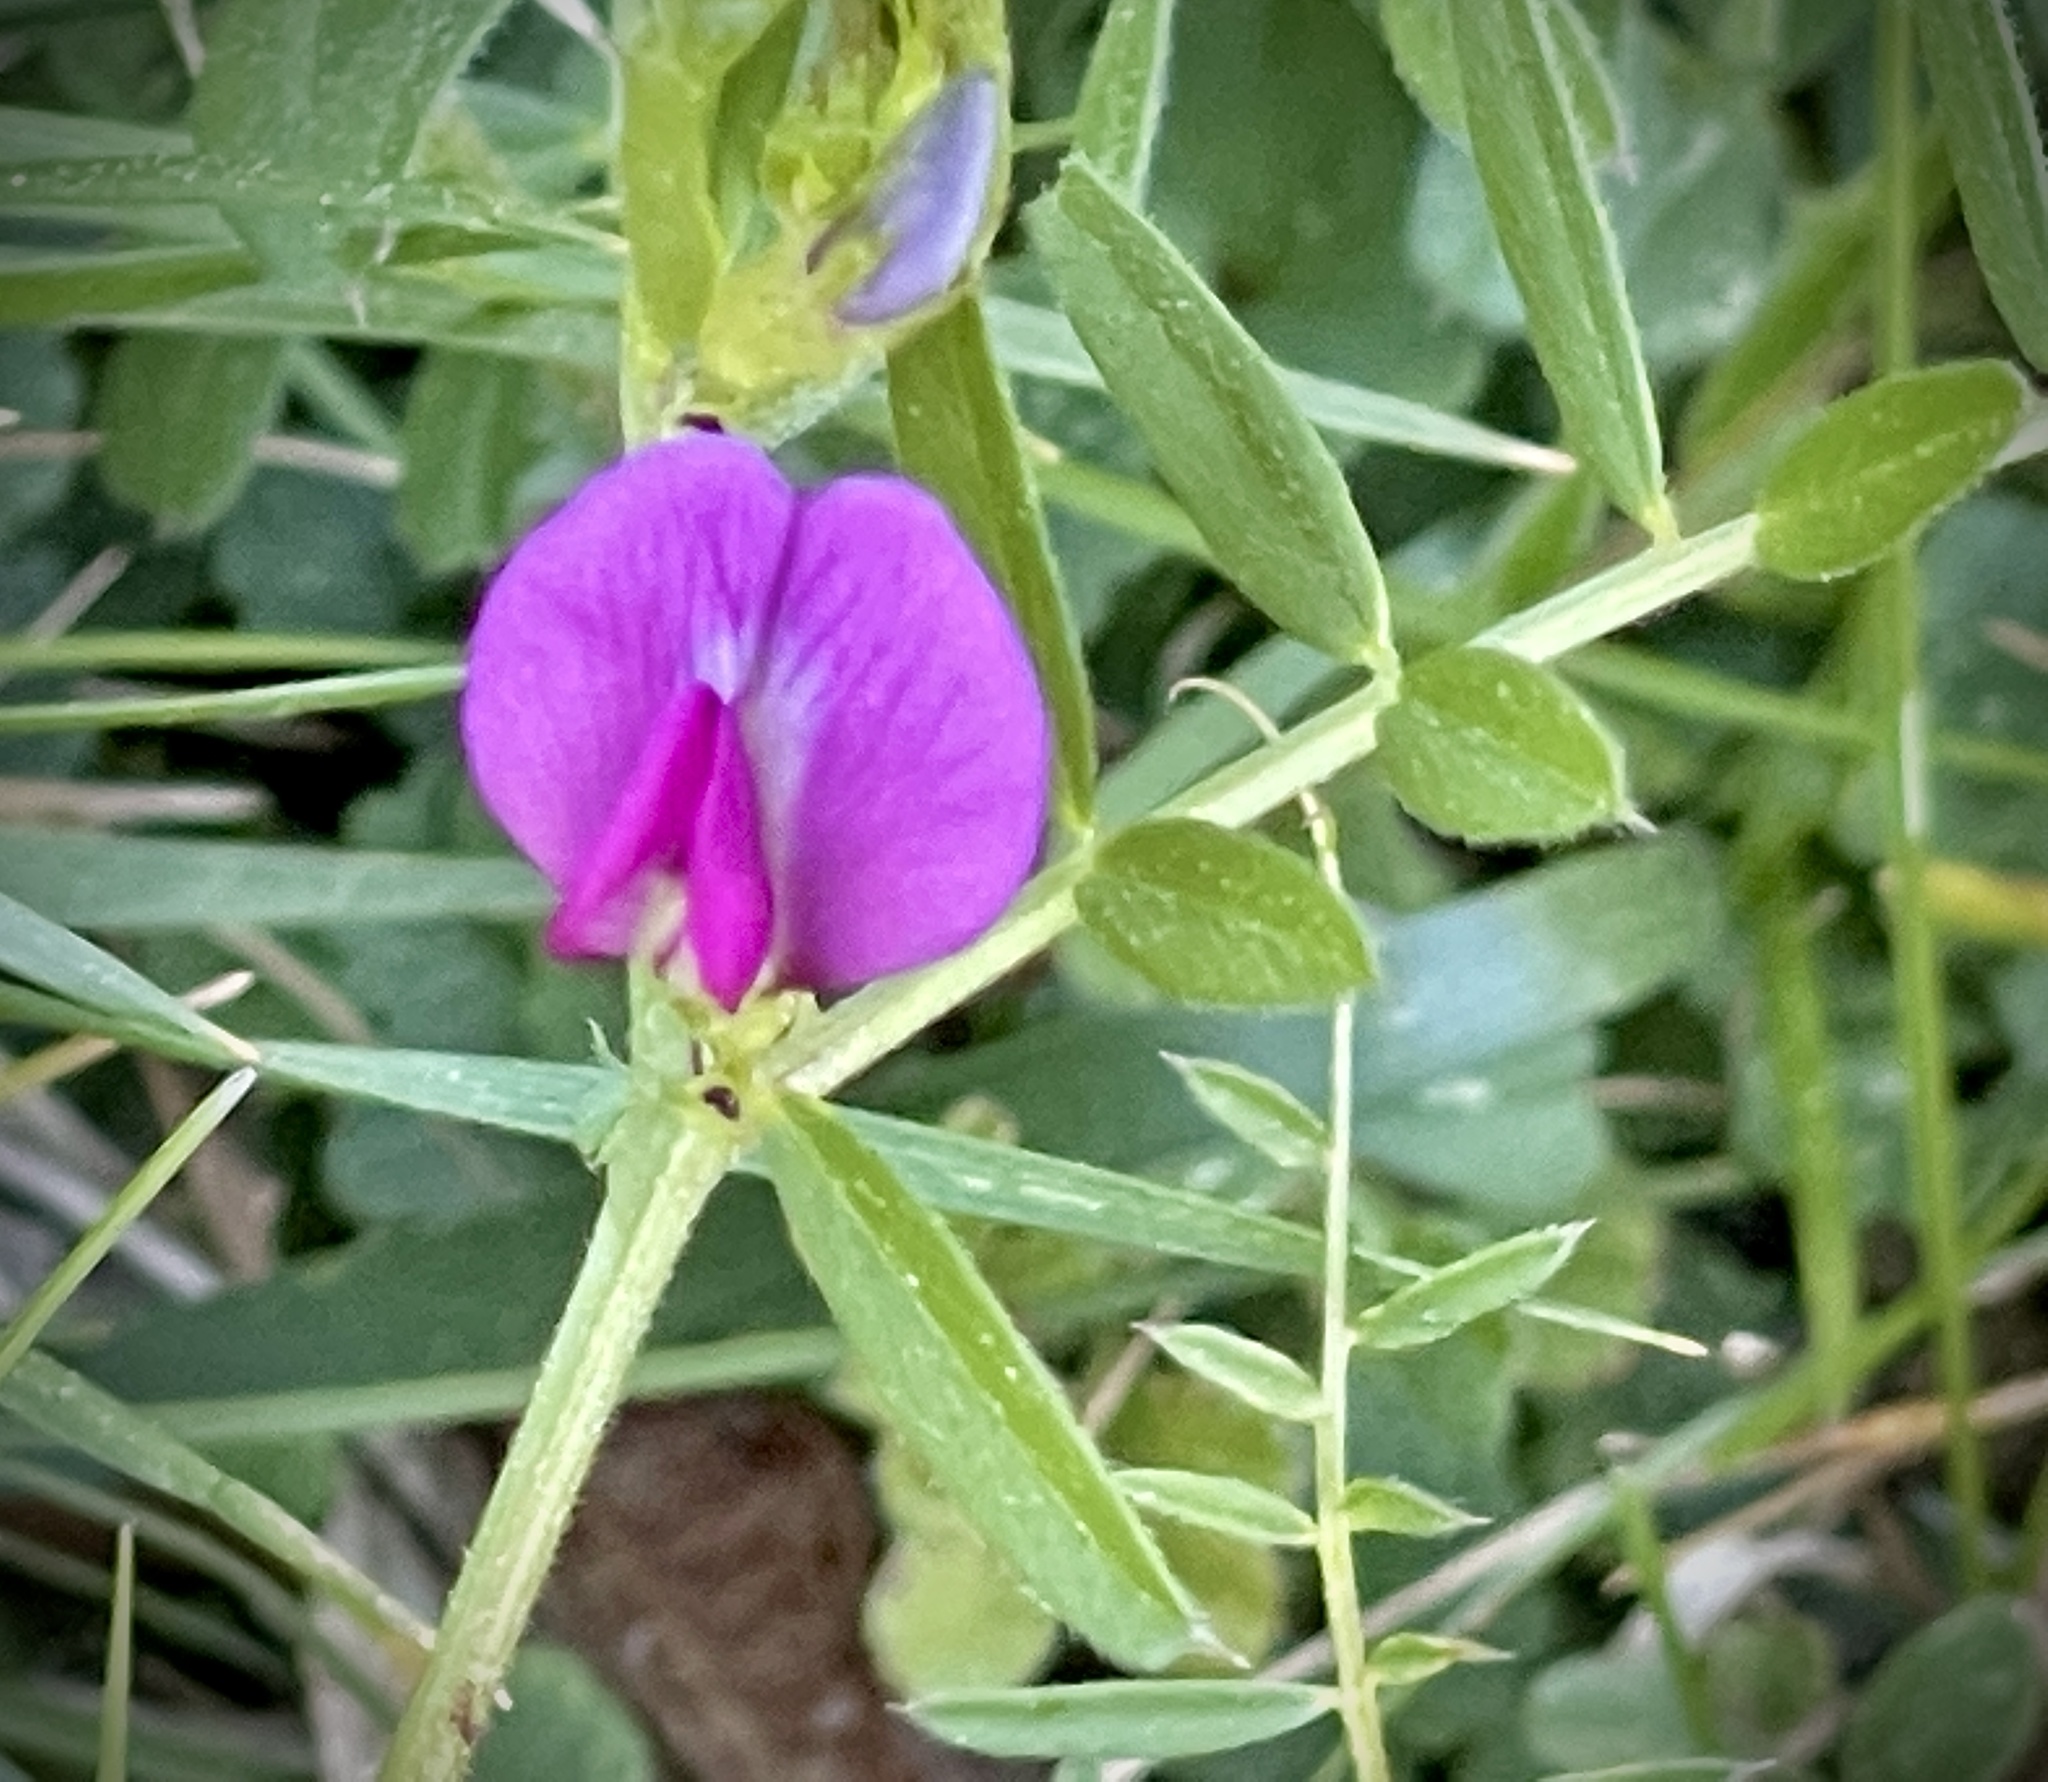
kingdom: Plantae
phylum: Tracheophyta
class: Magnoliopsida
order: Fabales
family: Fabaceae
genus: Vicia
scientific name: Vicia sativa
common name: Garden vetch
